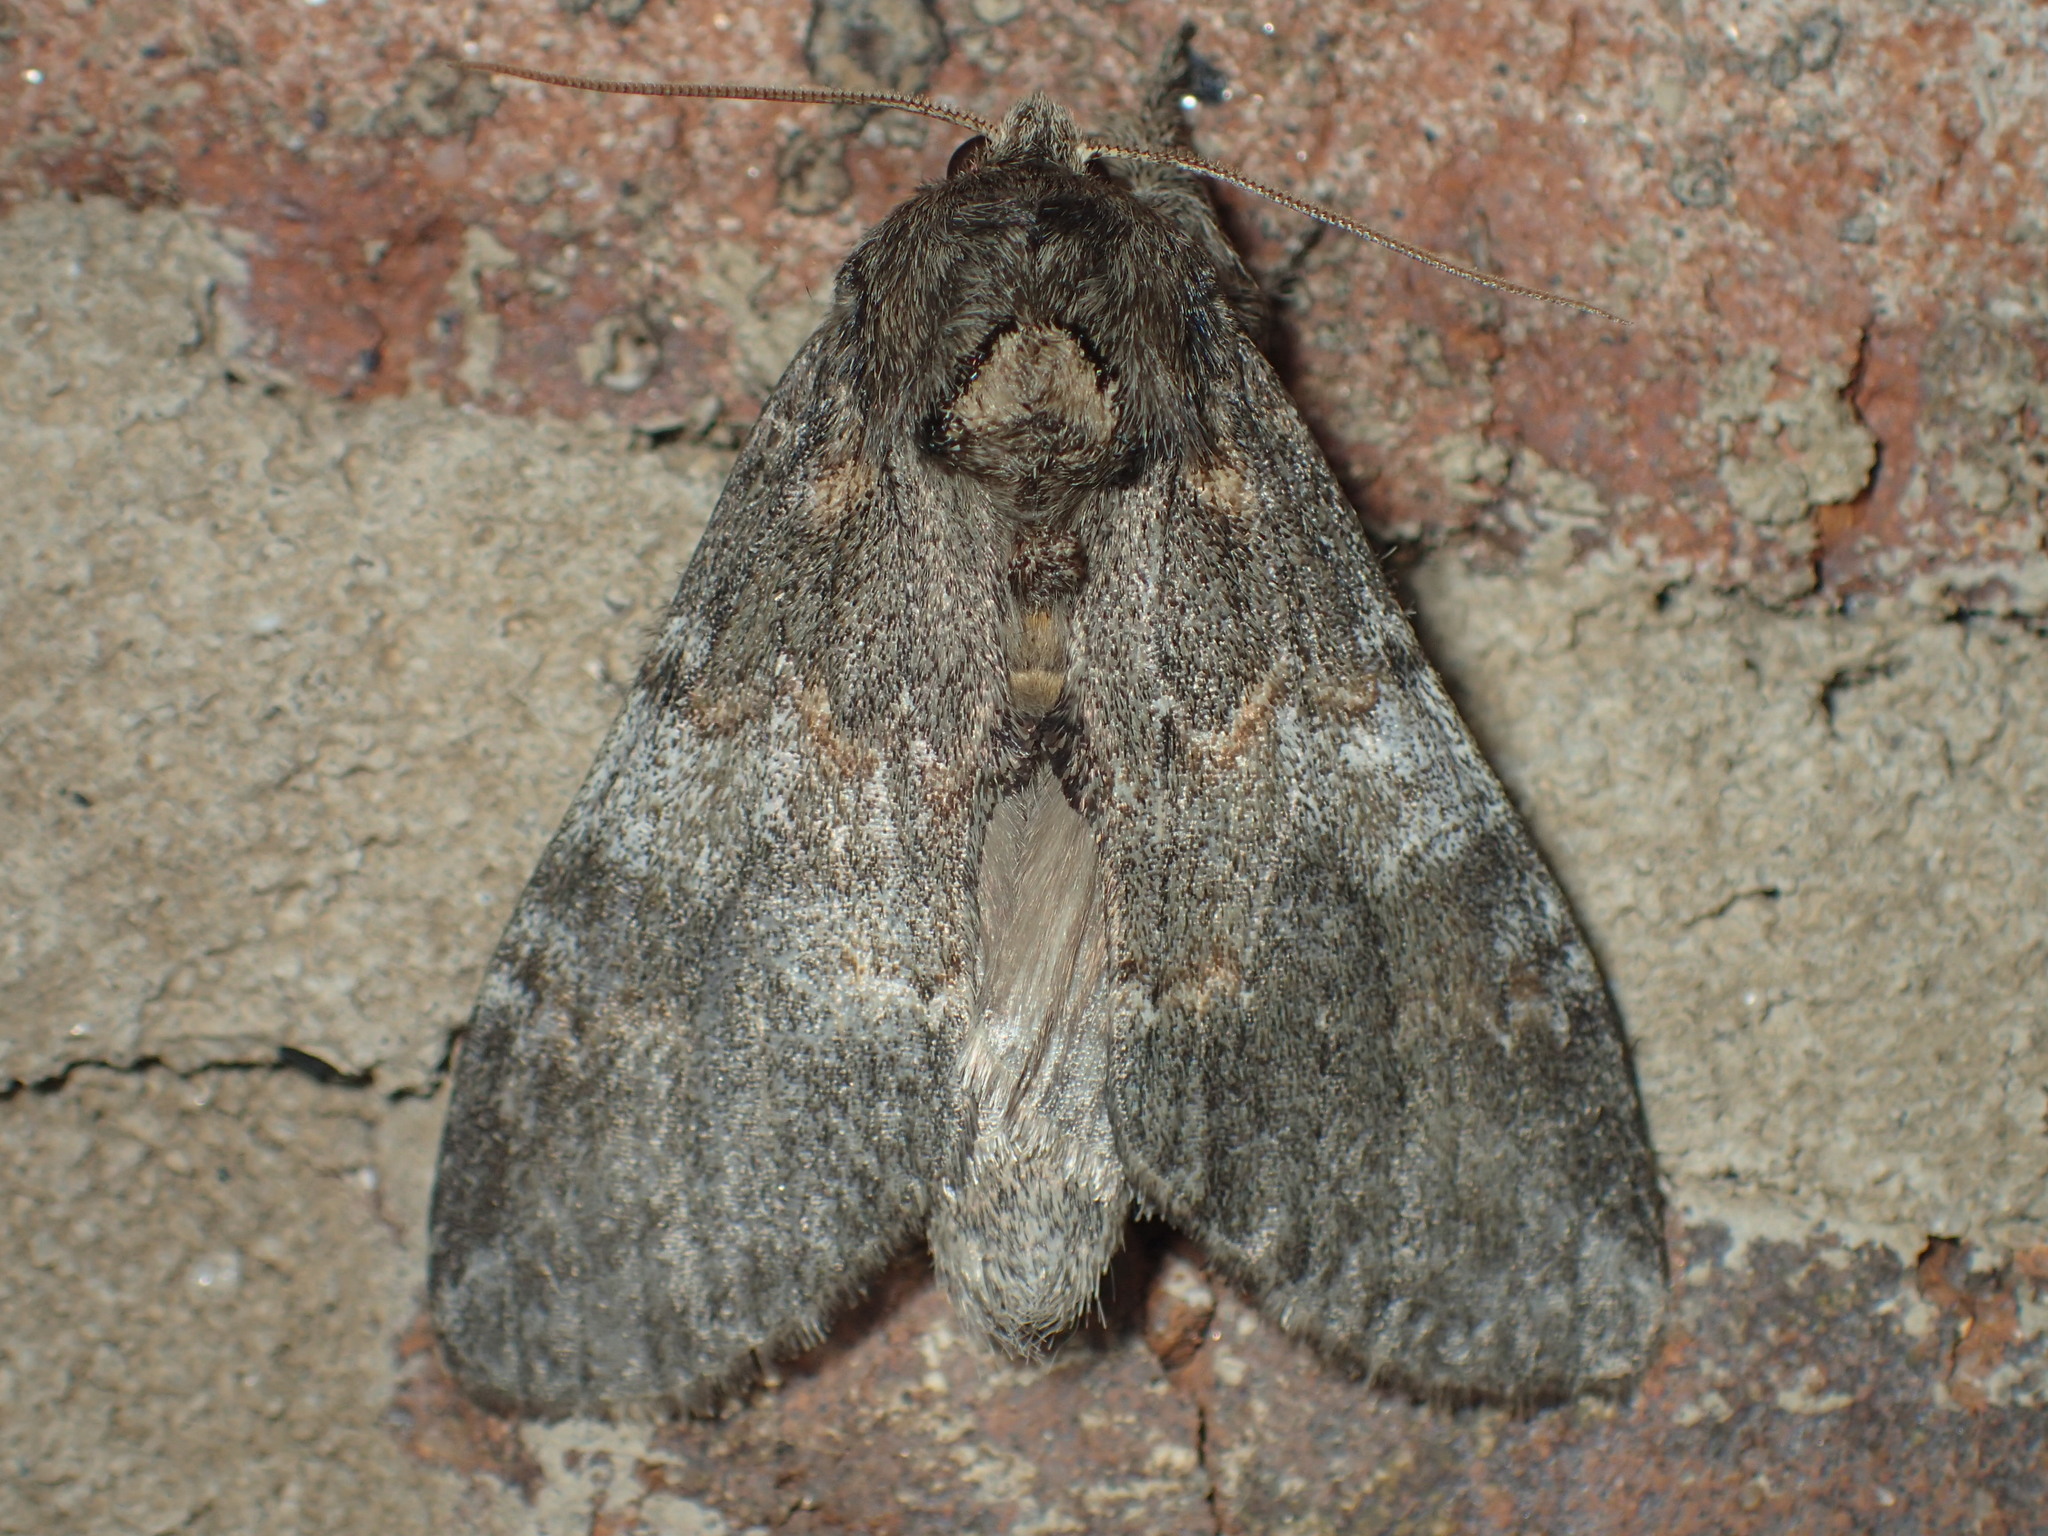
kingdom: Animalia
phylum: Arthropoda
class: Insecta
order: Lepidoptera
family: Notodontidae
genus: Peridea
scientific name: Peridea angulosa
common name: Angulose prominent
